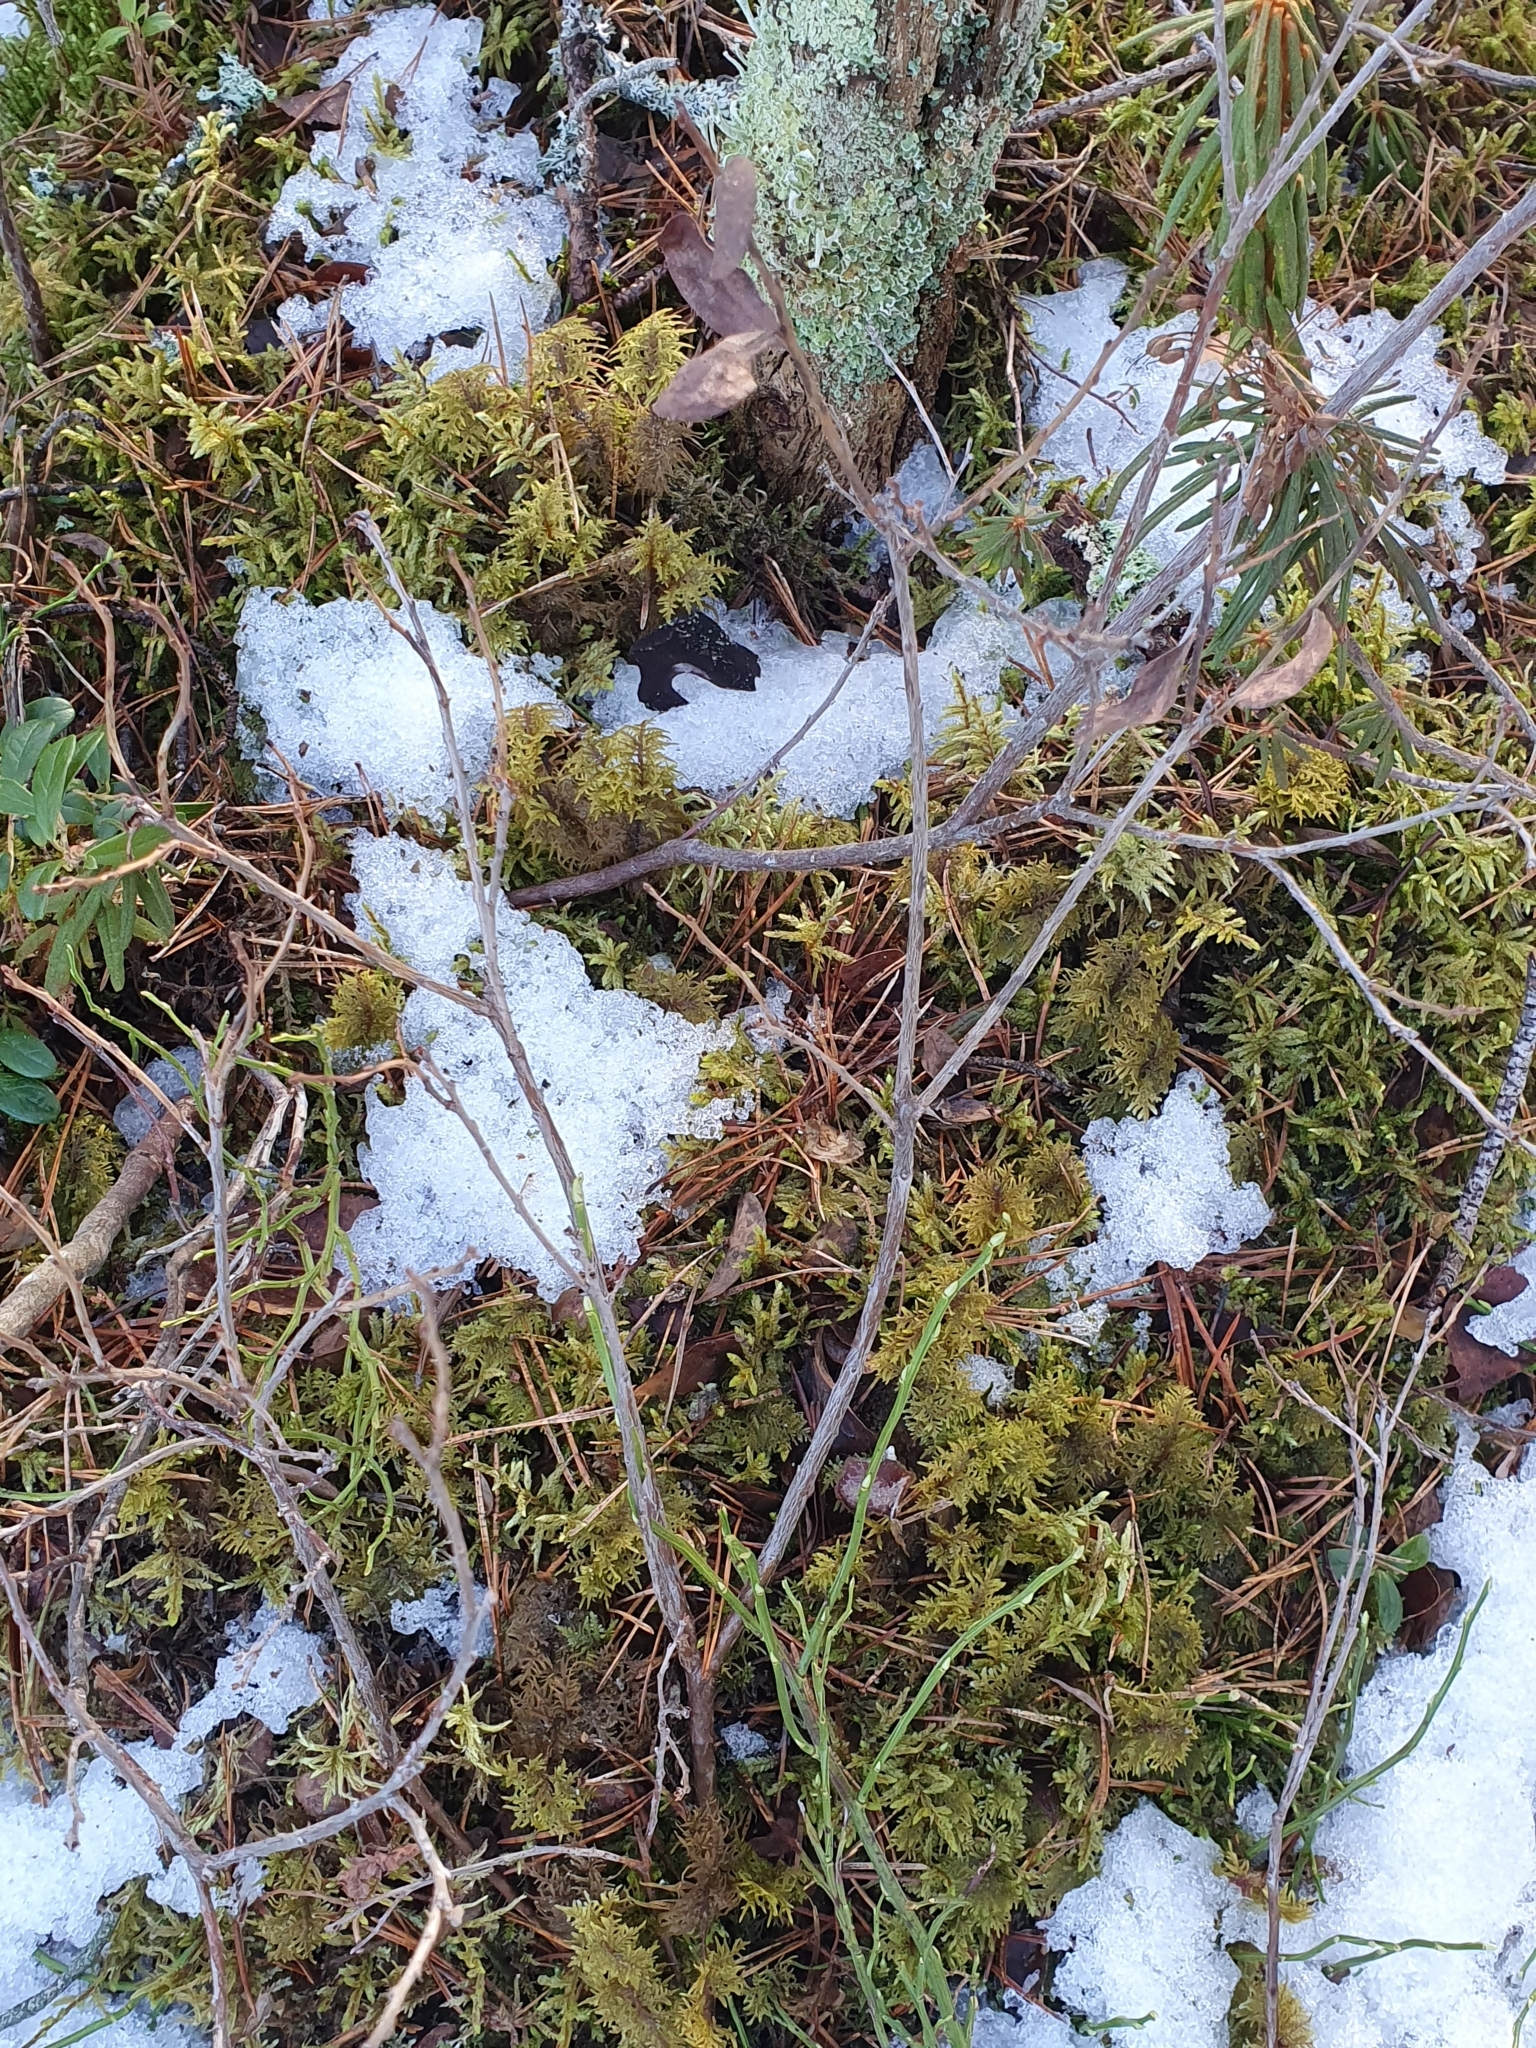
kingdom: Plantae
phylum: Tracheophyta
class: Magnoliopsida
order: Ericales
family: Ericaceae
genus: Vaccinium
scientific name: Vaccinium uliginosum
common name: Bog bilberry
